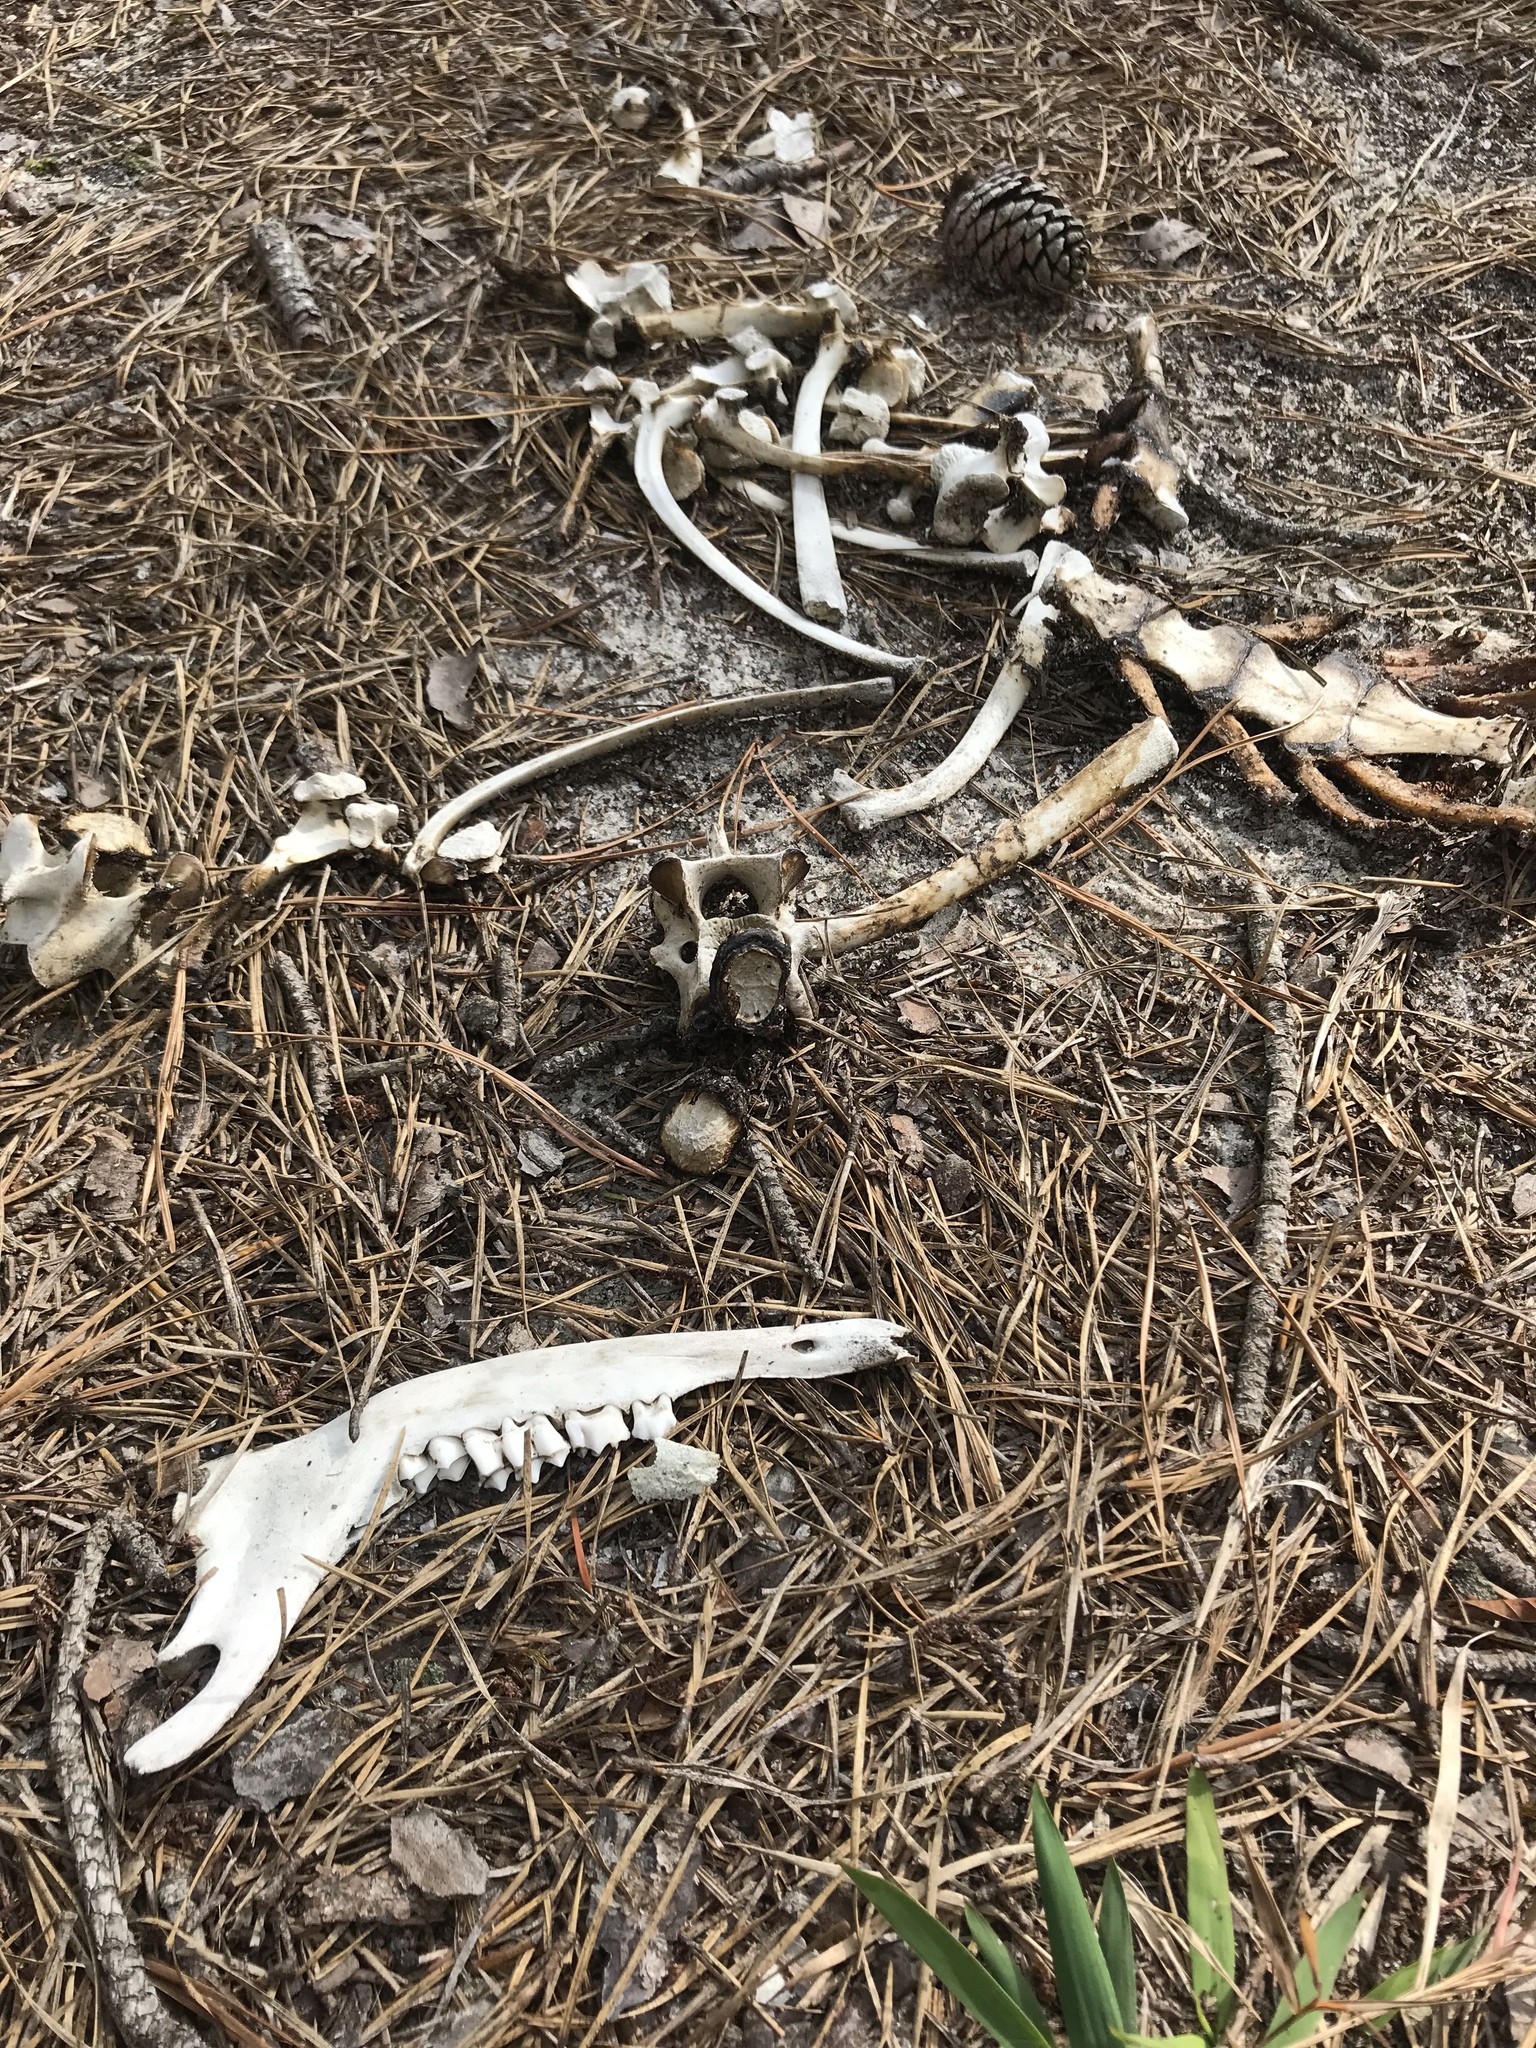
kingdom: Animalia
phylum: Chordata
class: Mammalia
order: Artiodactyla
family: Cervidae
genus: Odocoileus
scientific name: Odocoileus virginianus
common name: White-tailed deer
